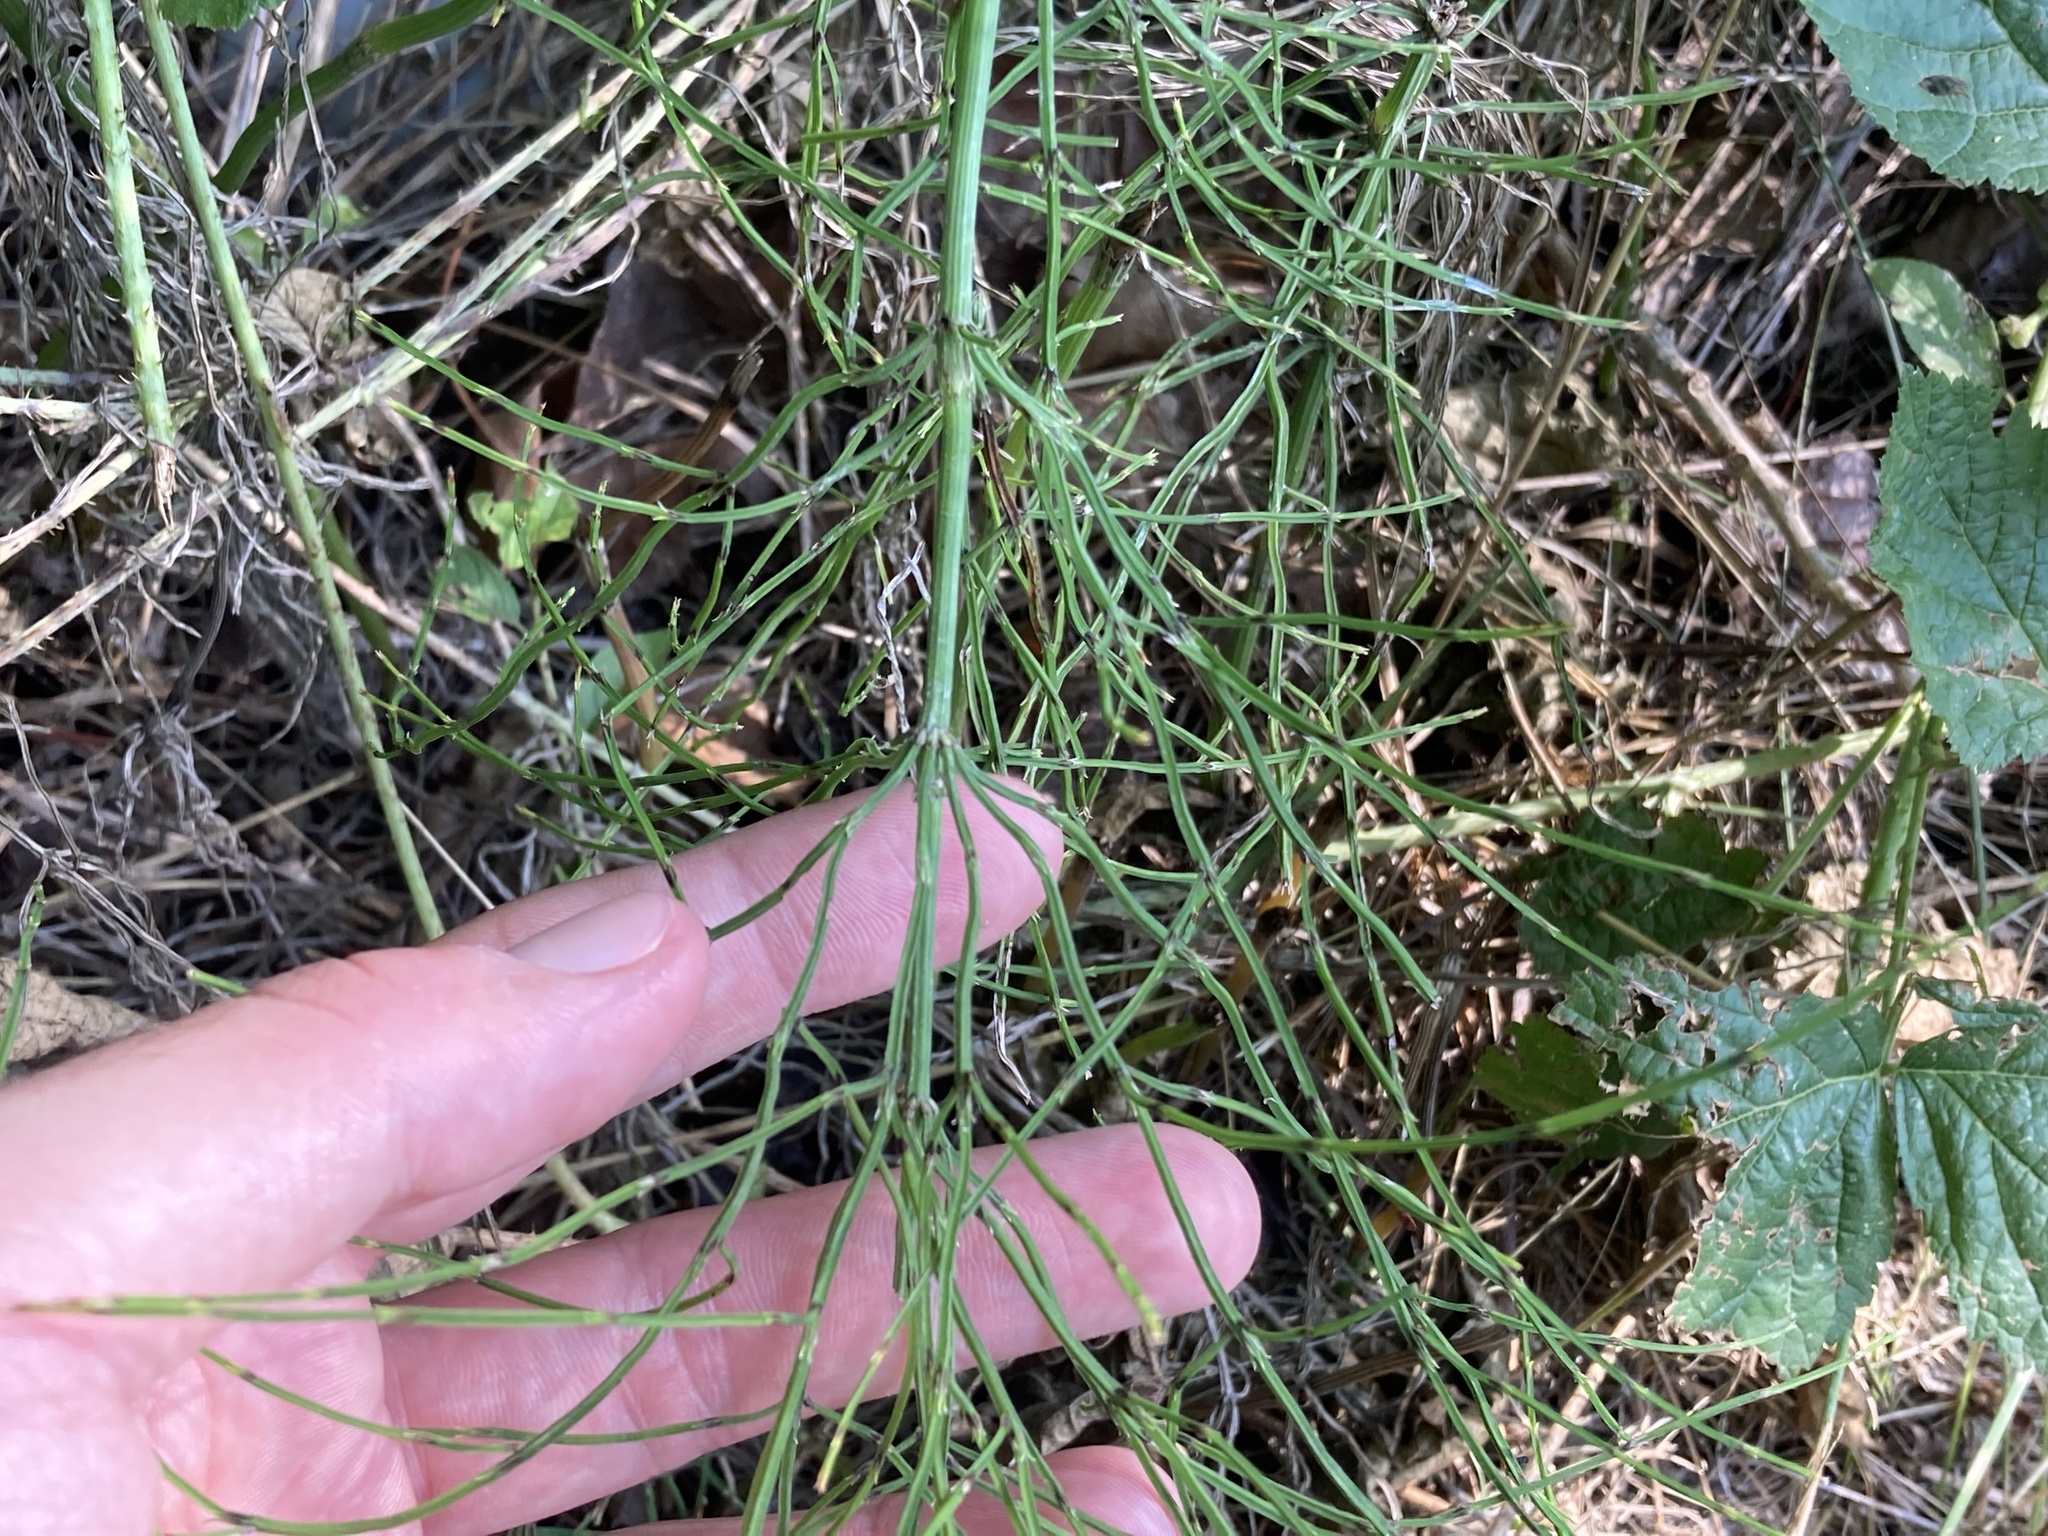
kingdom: Plantae
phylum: Tracheophyta
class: Polypodiopsida
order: Equisetales
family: Equisetaceae
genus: Equisetum
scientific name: Equisetum arvense
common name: Field horsetail
